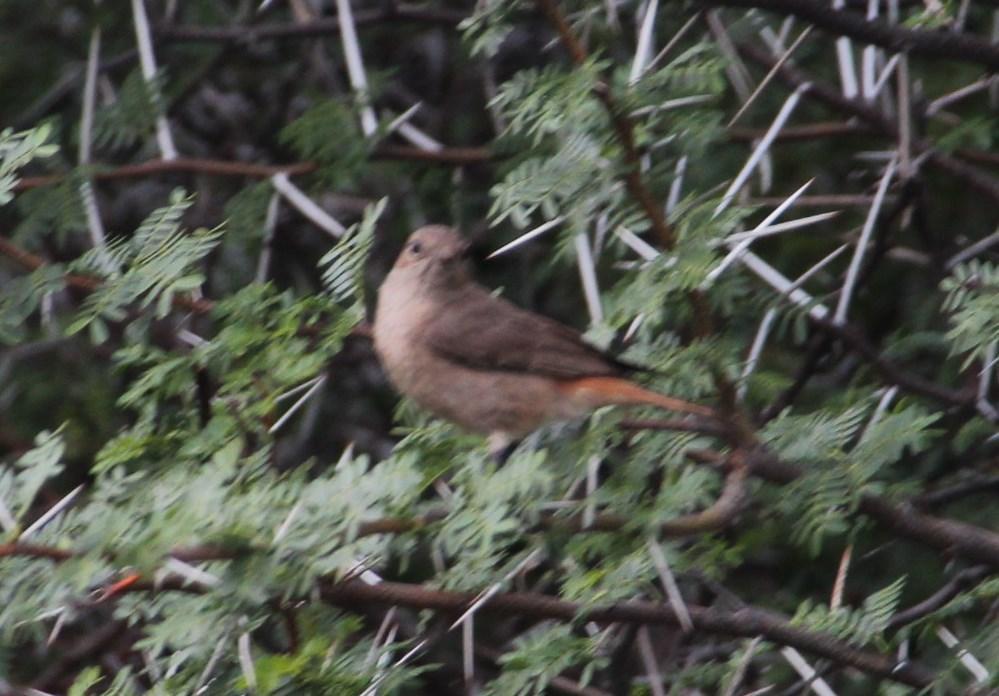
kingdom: Animalia
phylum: Chordata
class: Aves
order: Passeriformes
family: Muscicapidae
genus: Oenanthe
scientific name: Oenanthe familiaris
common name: Familiar chat
